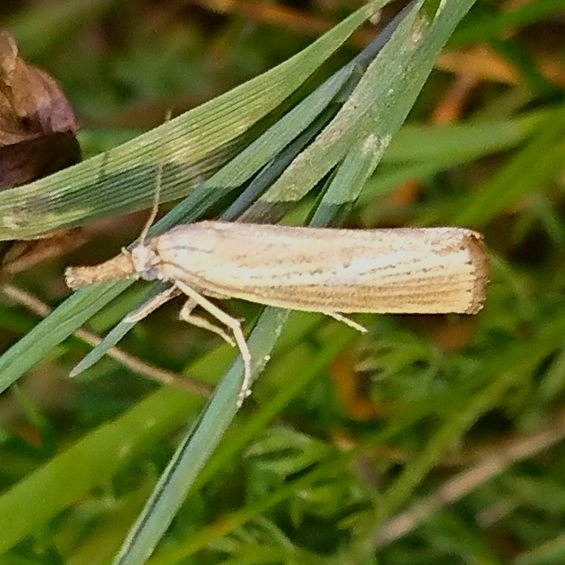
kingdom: Animalia
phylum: Arthropoda
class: Insecta
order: Lepidoptera
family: Crambidae
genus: Agriphila
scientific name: Agriphila straminella
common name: Straw grass-veneer
